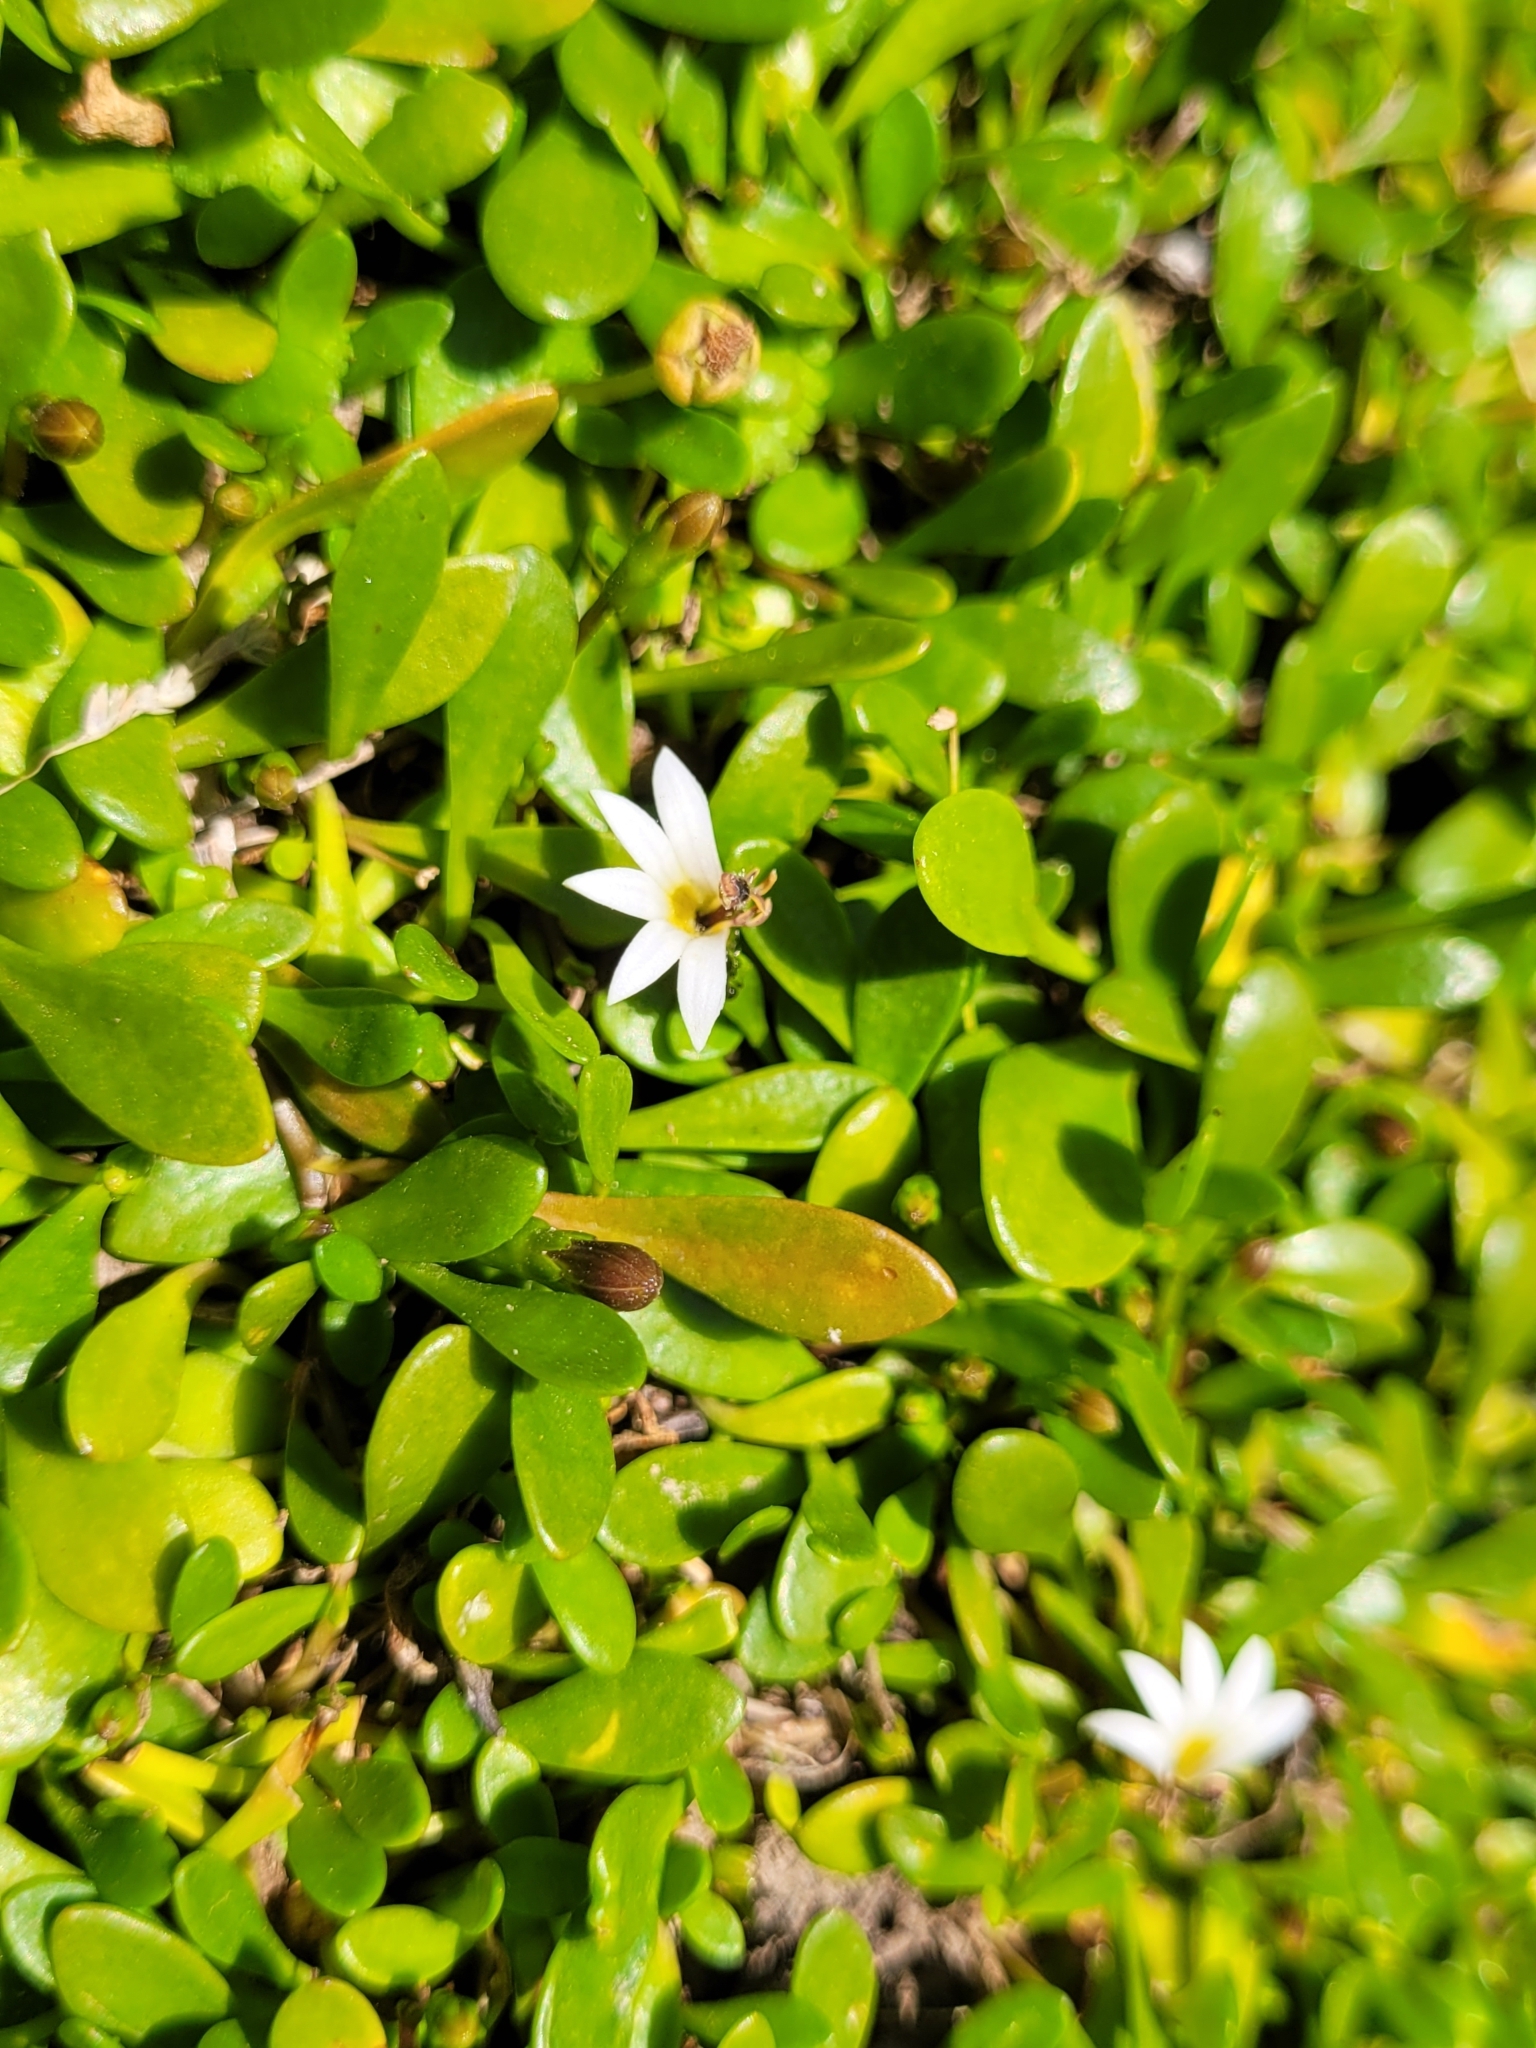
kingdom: Plantae
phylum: Tracheophyta
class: Magnoliopsida
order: Asterales
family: Goodeniaceae
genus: Goodenia
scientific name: Goodenia radicans
